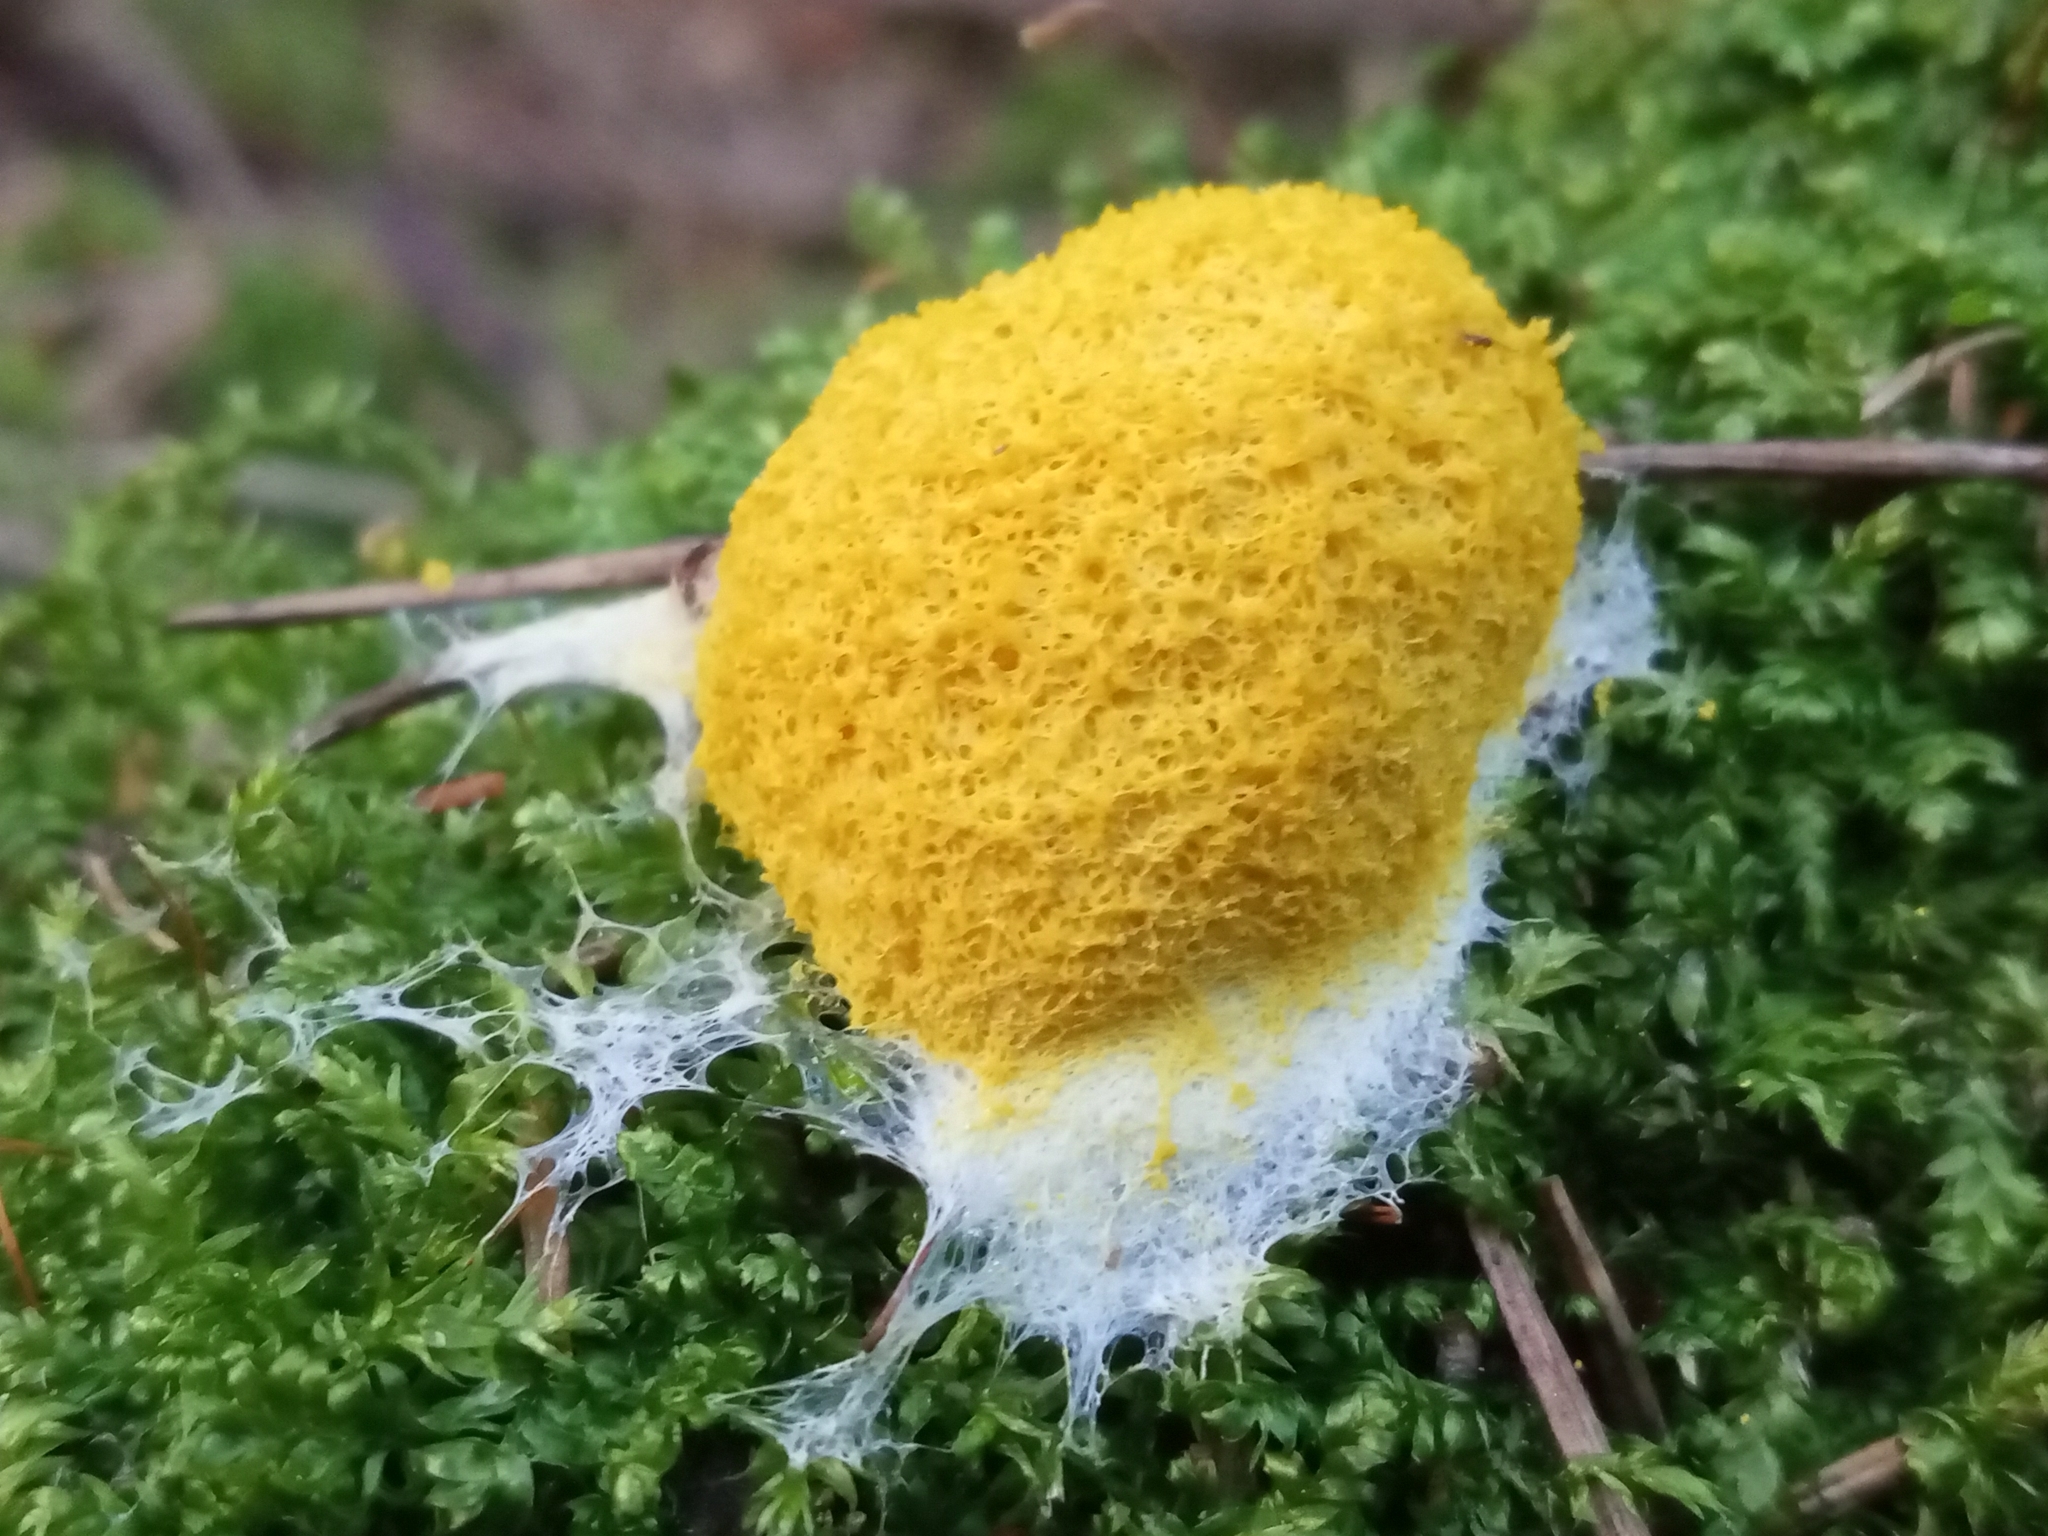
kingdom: Protozoa
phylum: Mycetozoa
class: Myxomycetes
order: Physarales
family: Physaraceae
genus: Fuligo
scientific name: Fuligo septica
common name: Dog vomit slime mold
